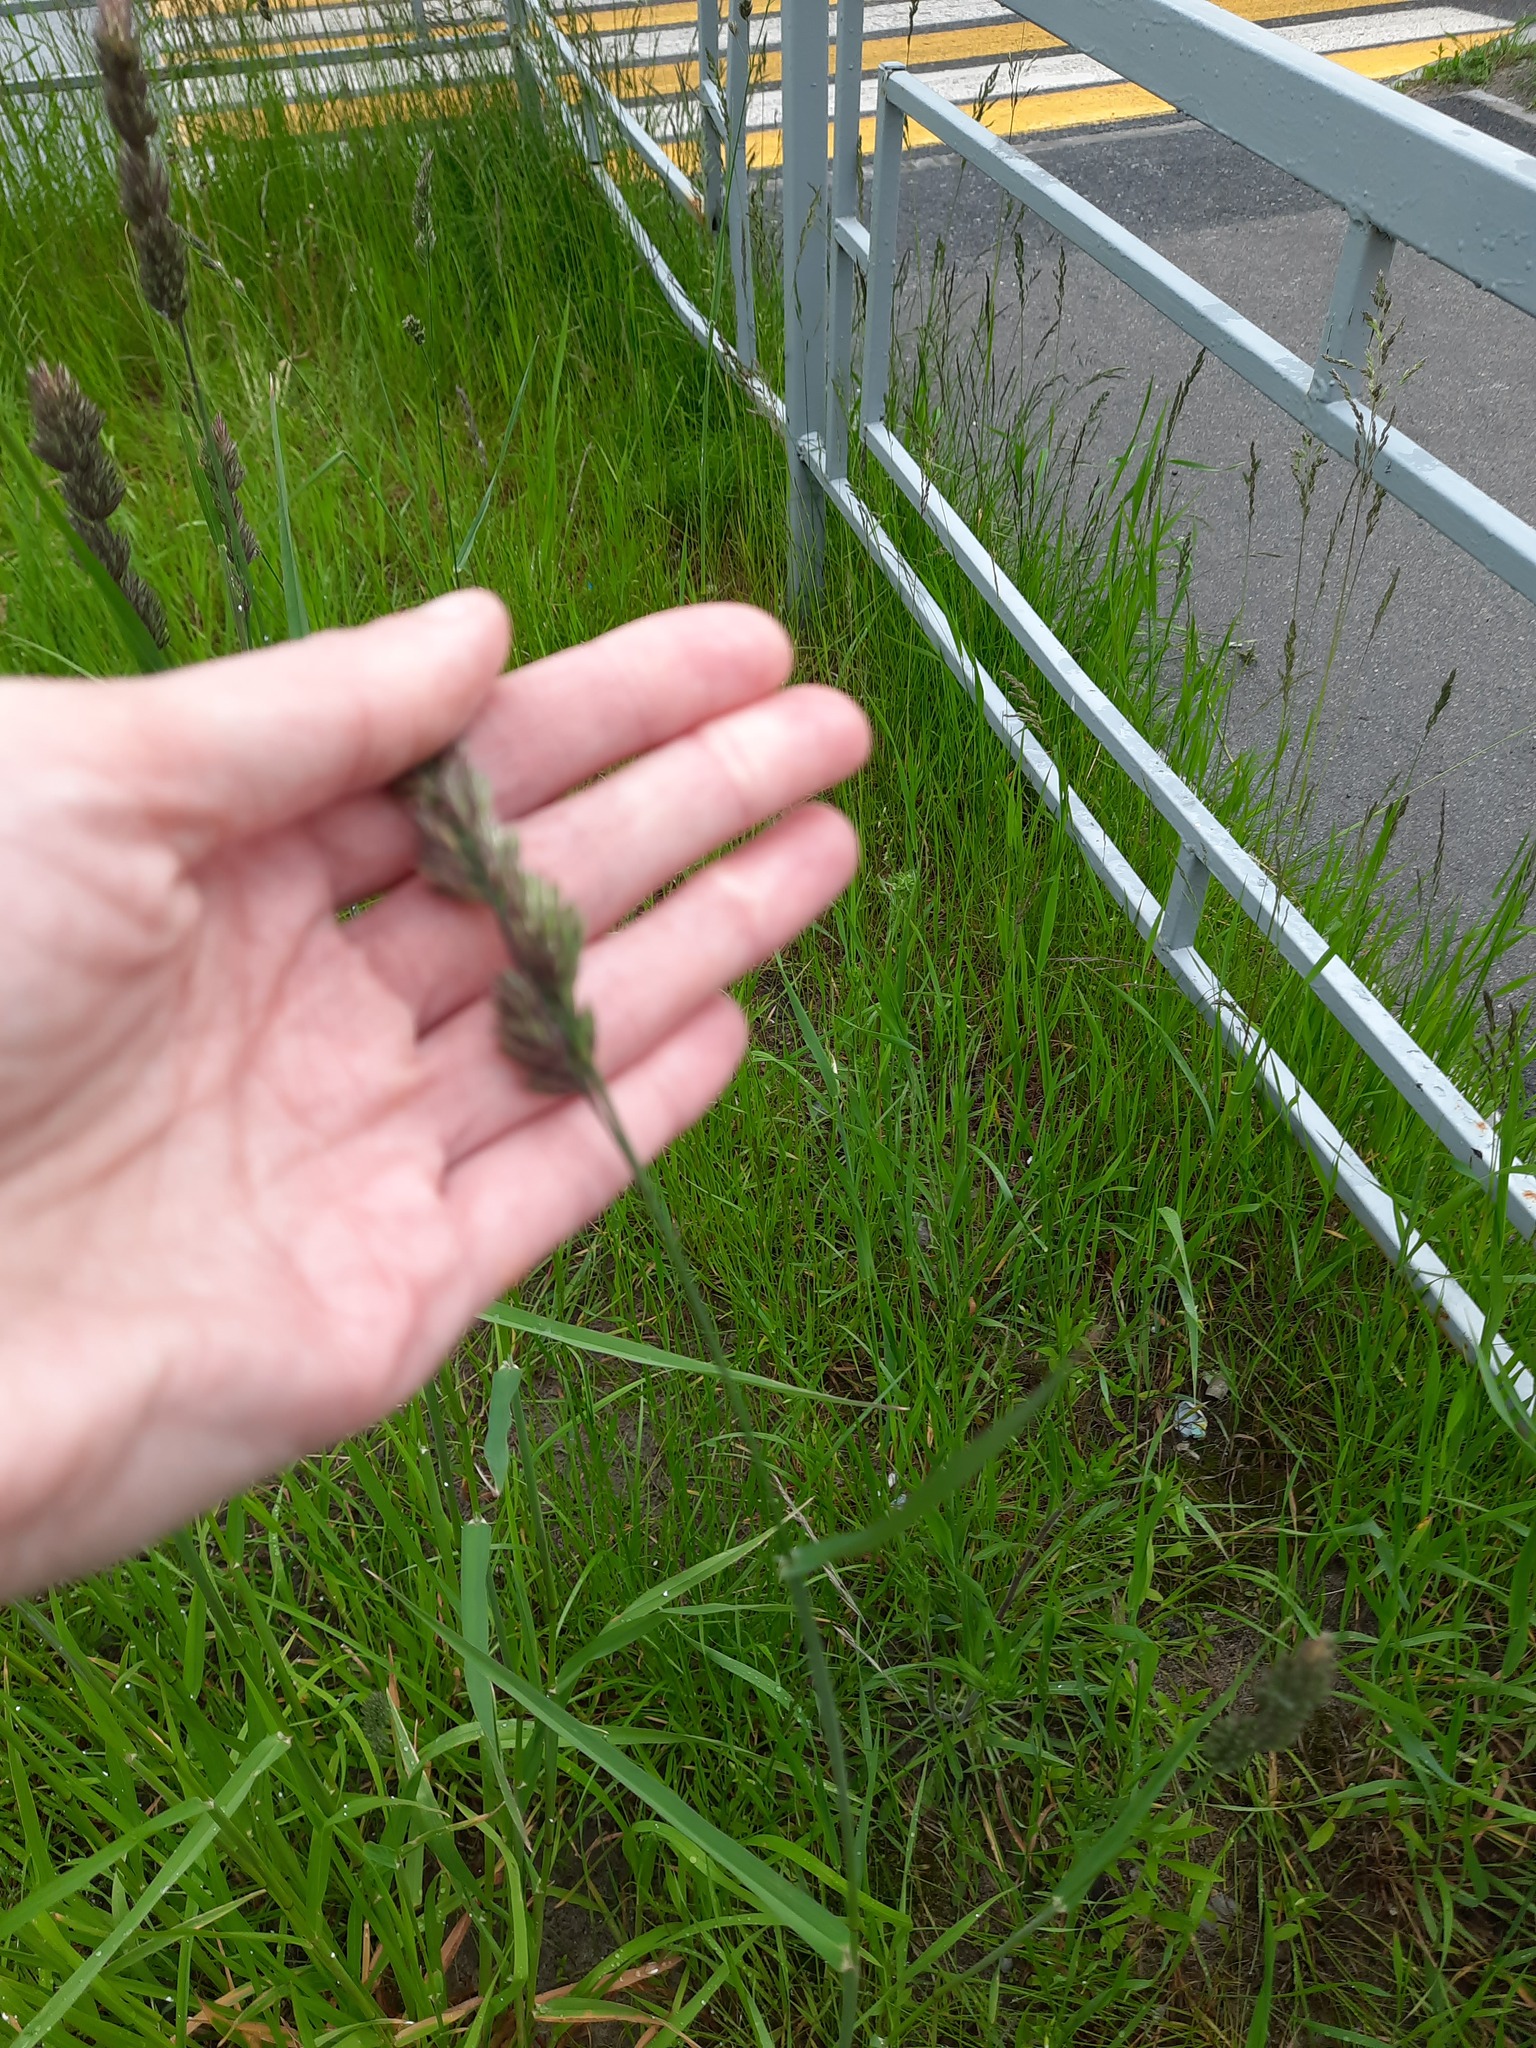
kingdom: Plantae
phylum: Tracheophyta
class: Liliopsida
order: Poales
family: Poaceae
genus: Dactylis
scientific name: Dactylis glomerata
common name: Orchardgrass
